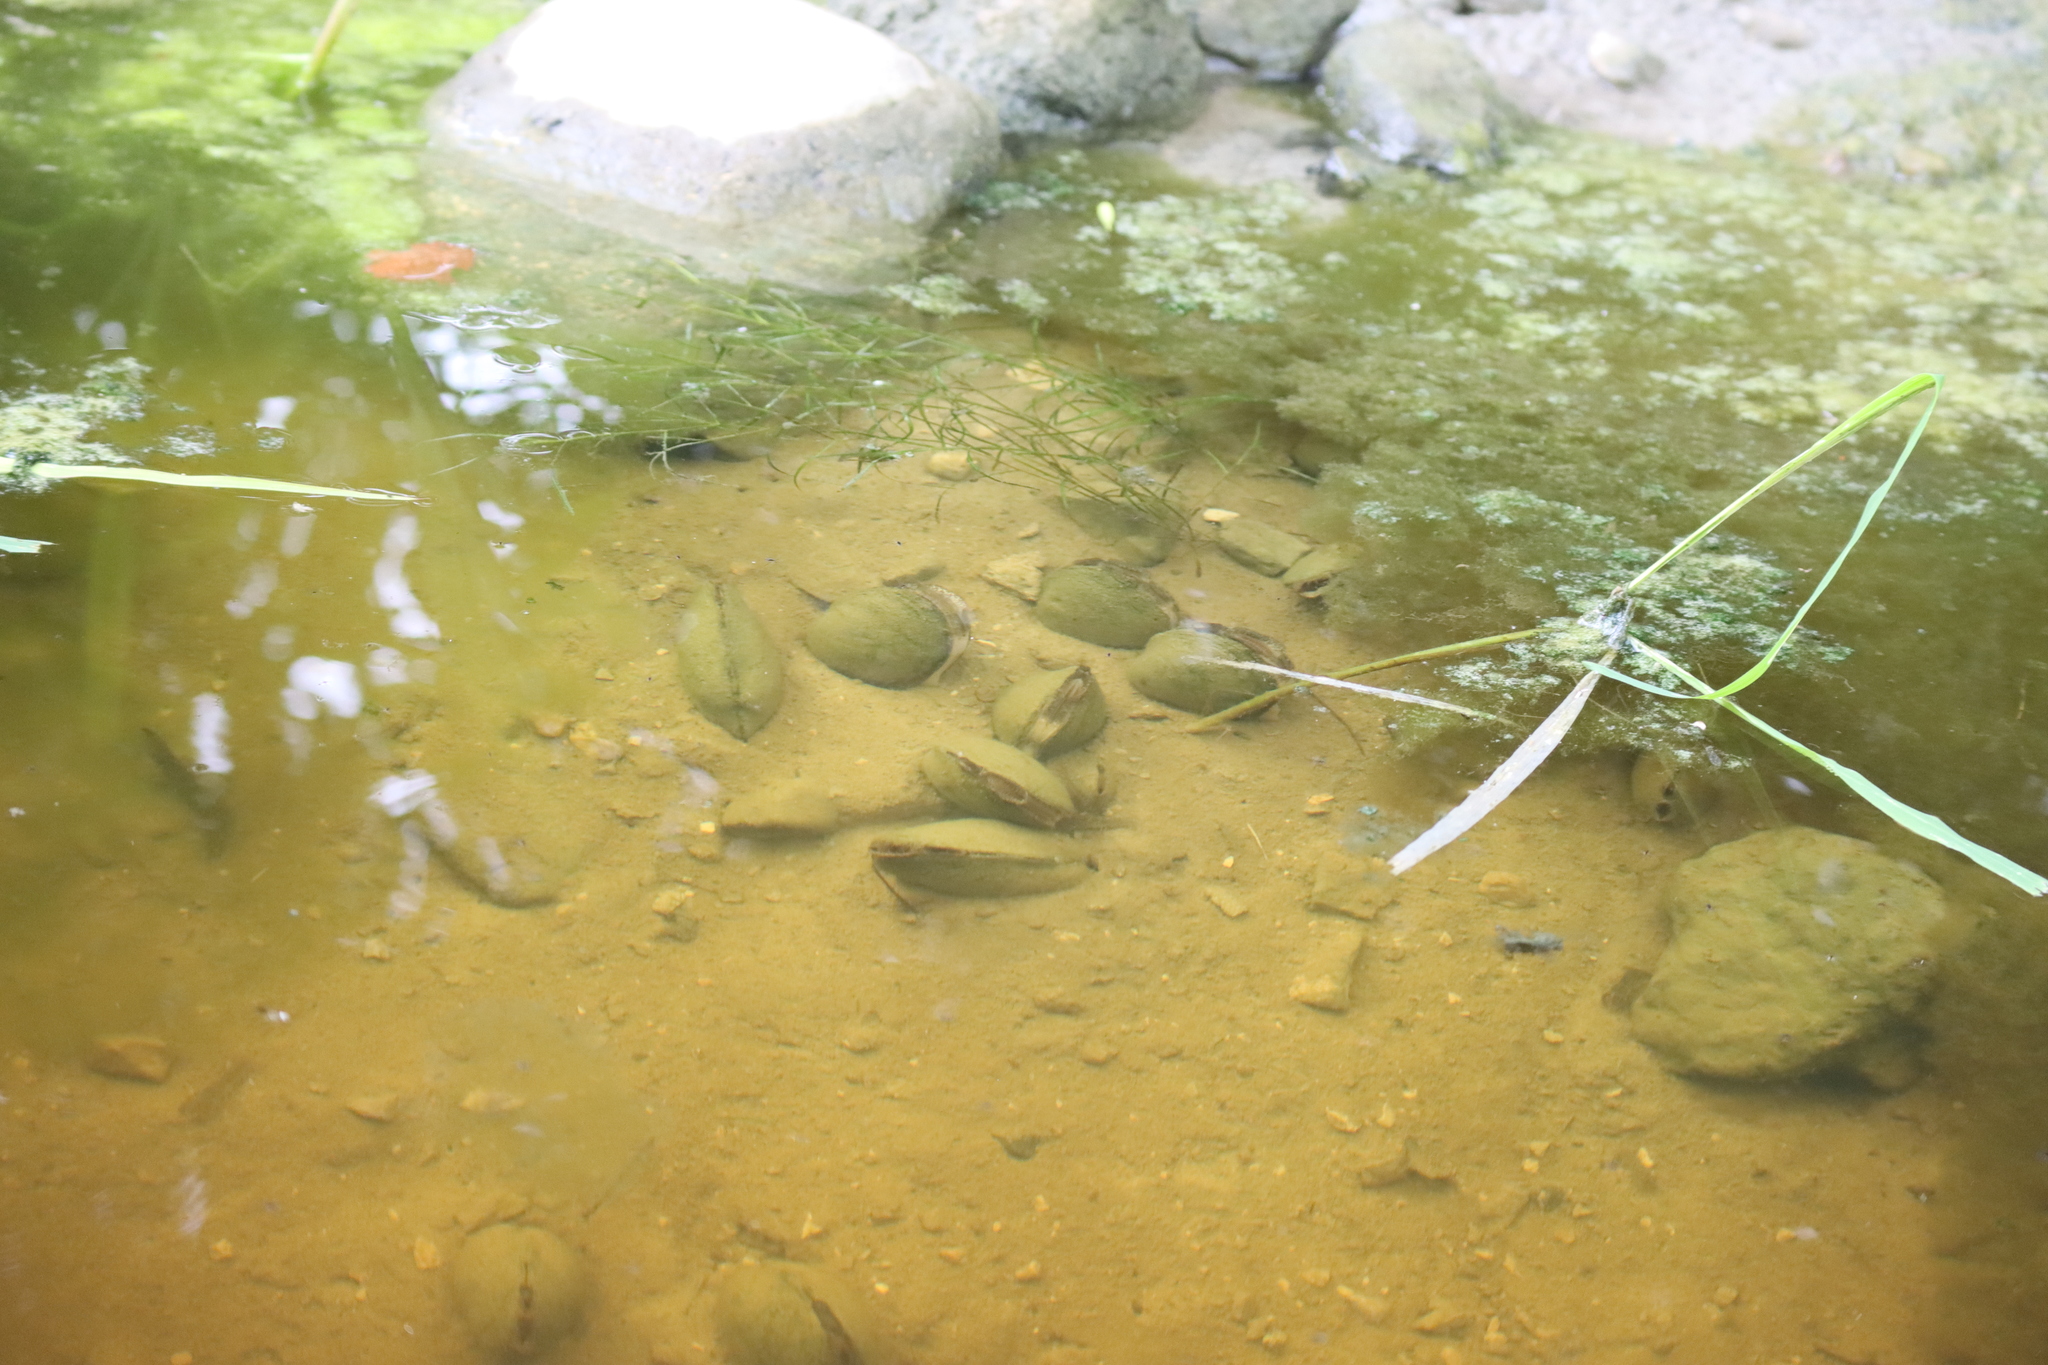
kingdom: Animalia
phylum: Mollusca
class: Bivalvia
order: Unionida
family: Unionidae
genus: Lampsilis
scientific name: Lampsilis siliquoidea
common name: Fatmucket
